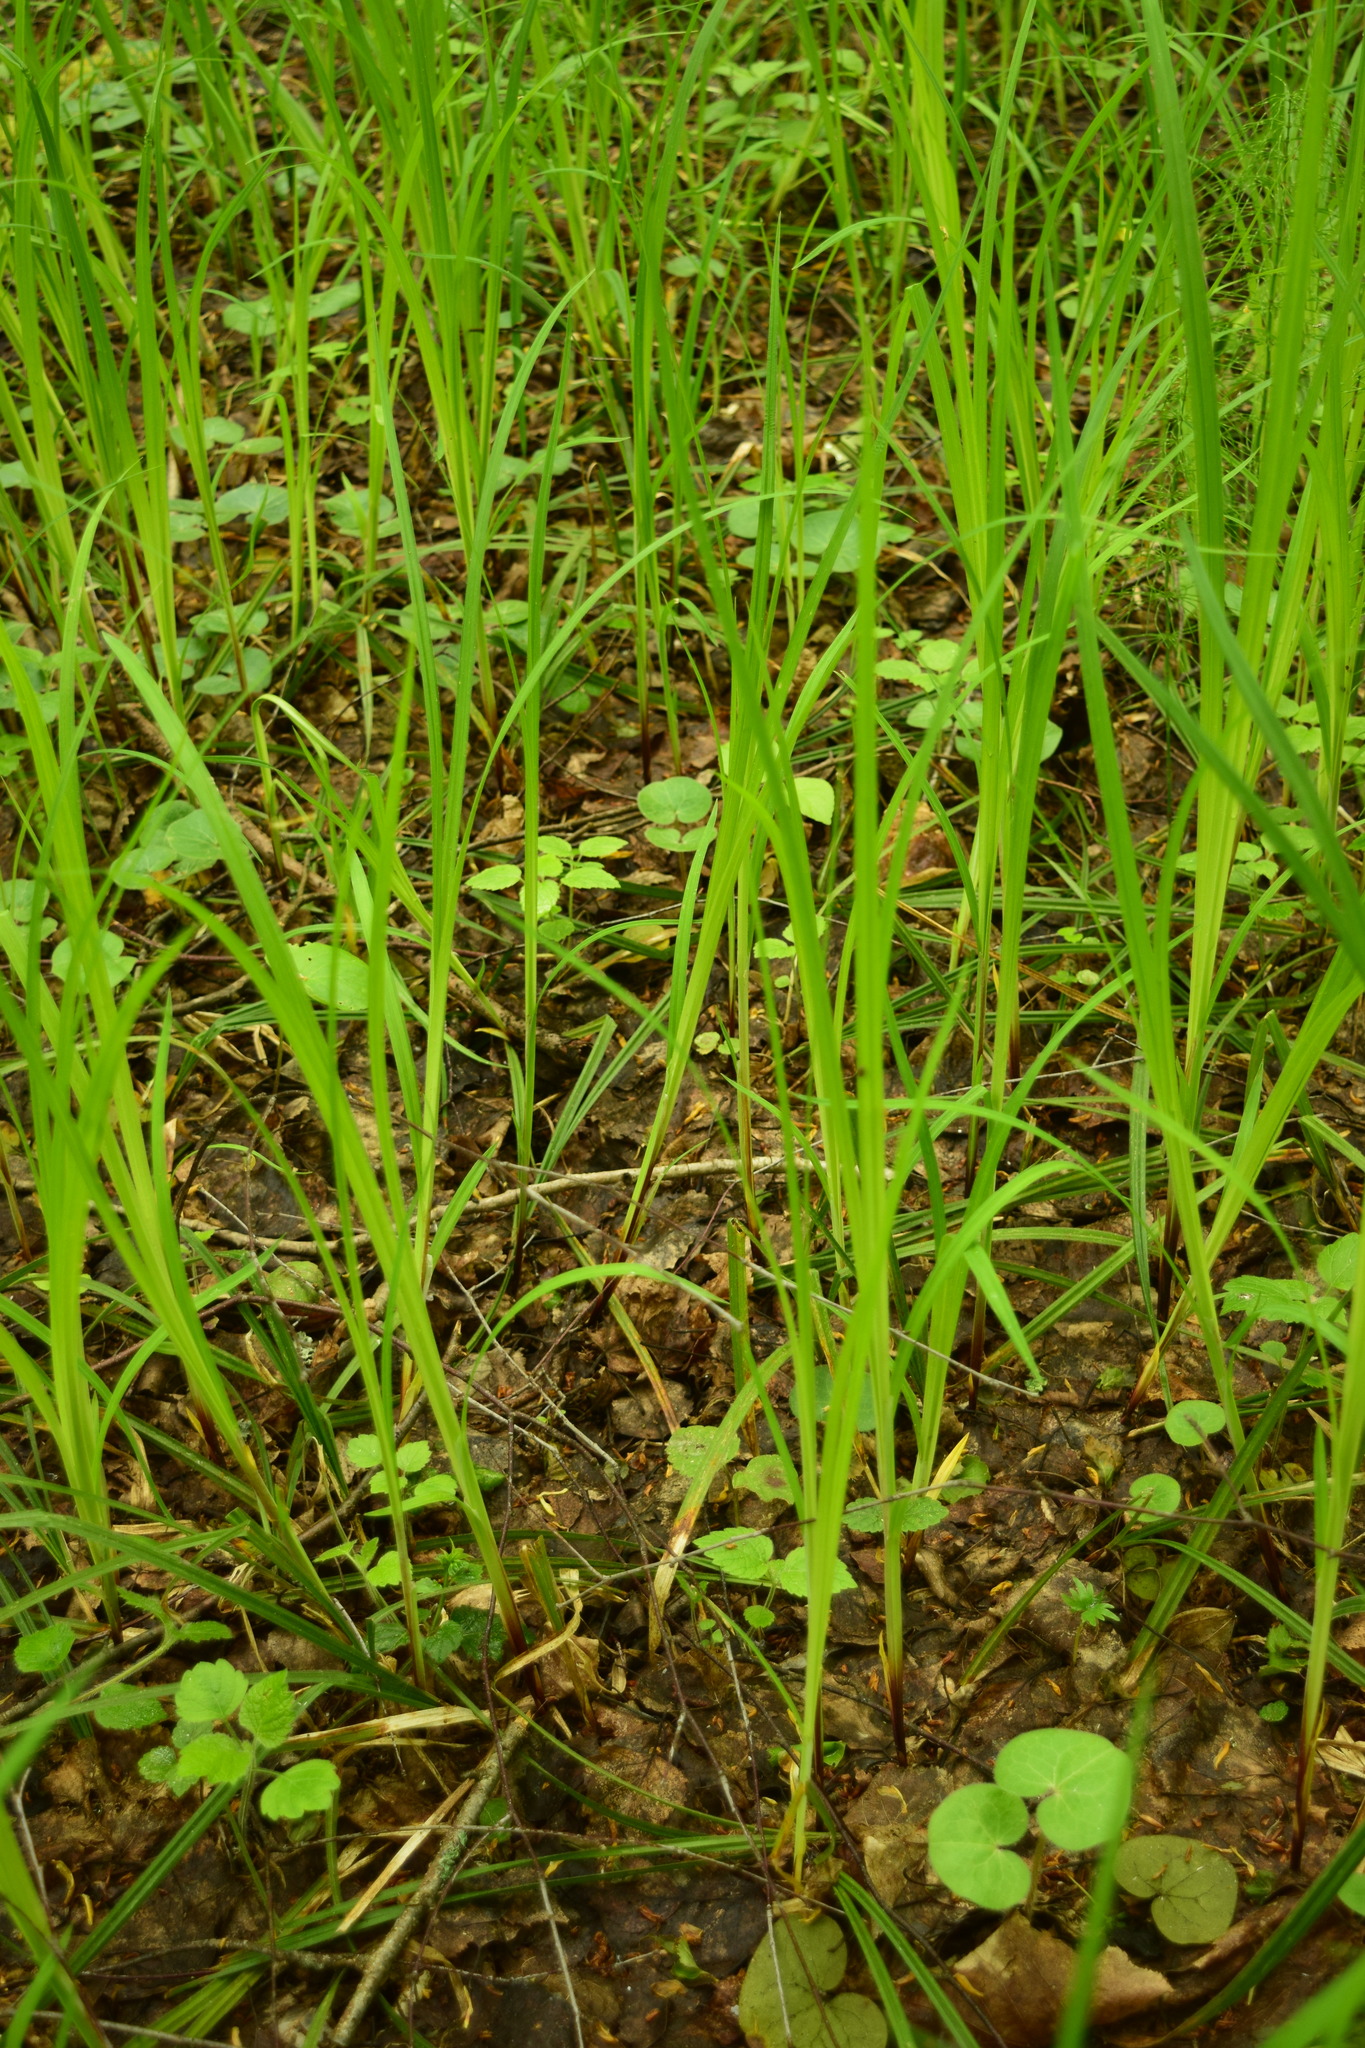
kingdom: Plantae
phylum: Tracheophyta
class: Liliopsida
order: Poales
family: Cyperaceae
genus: Carex
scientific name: Carex pilosa
